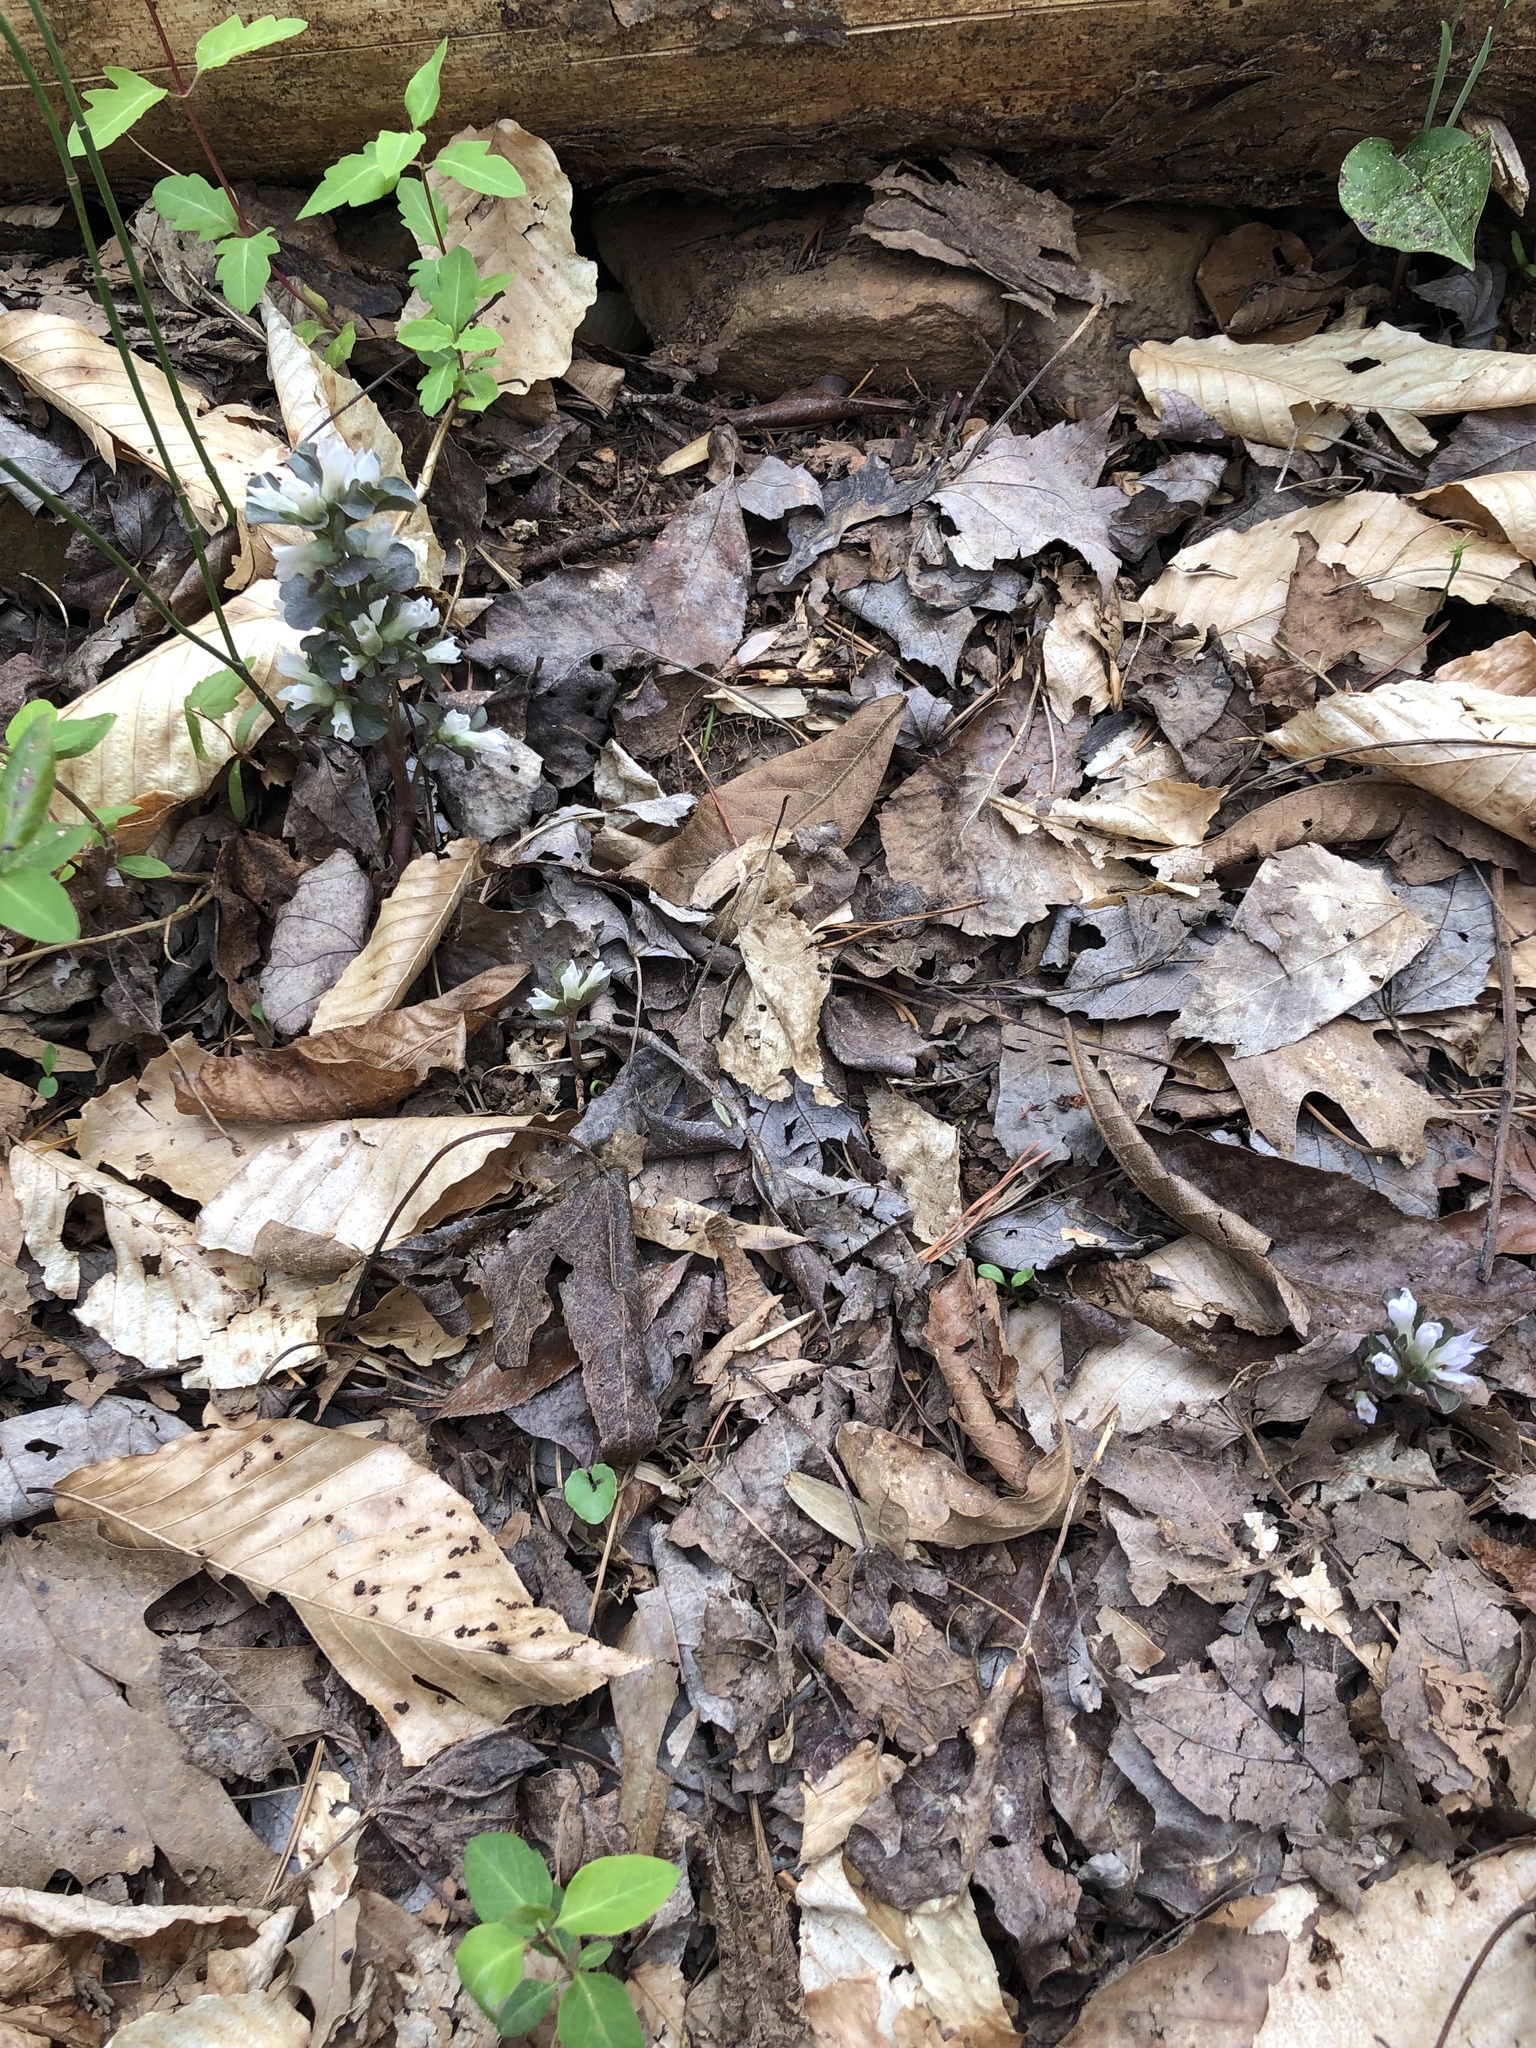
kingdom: Plantae
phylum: Tracheophyta
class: Magnoliopsida
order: Gentianales
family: Gentianaceae
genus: Obolaria
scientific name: Obolaria virginica
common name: Pennywort
